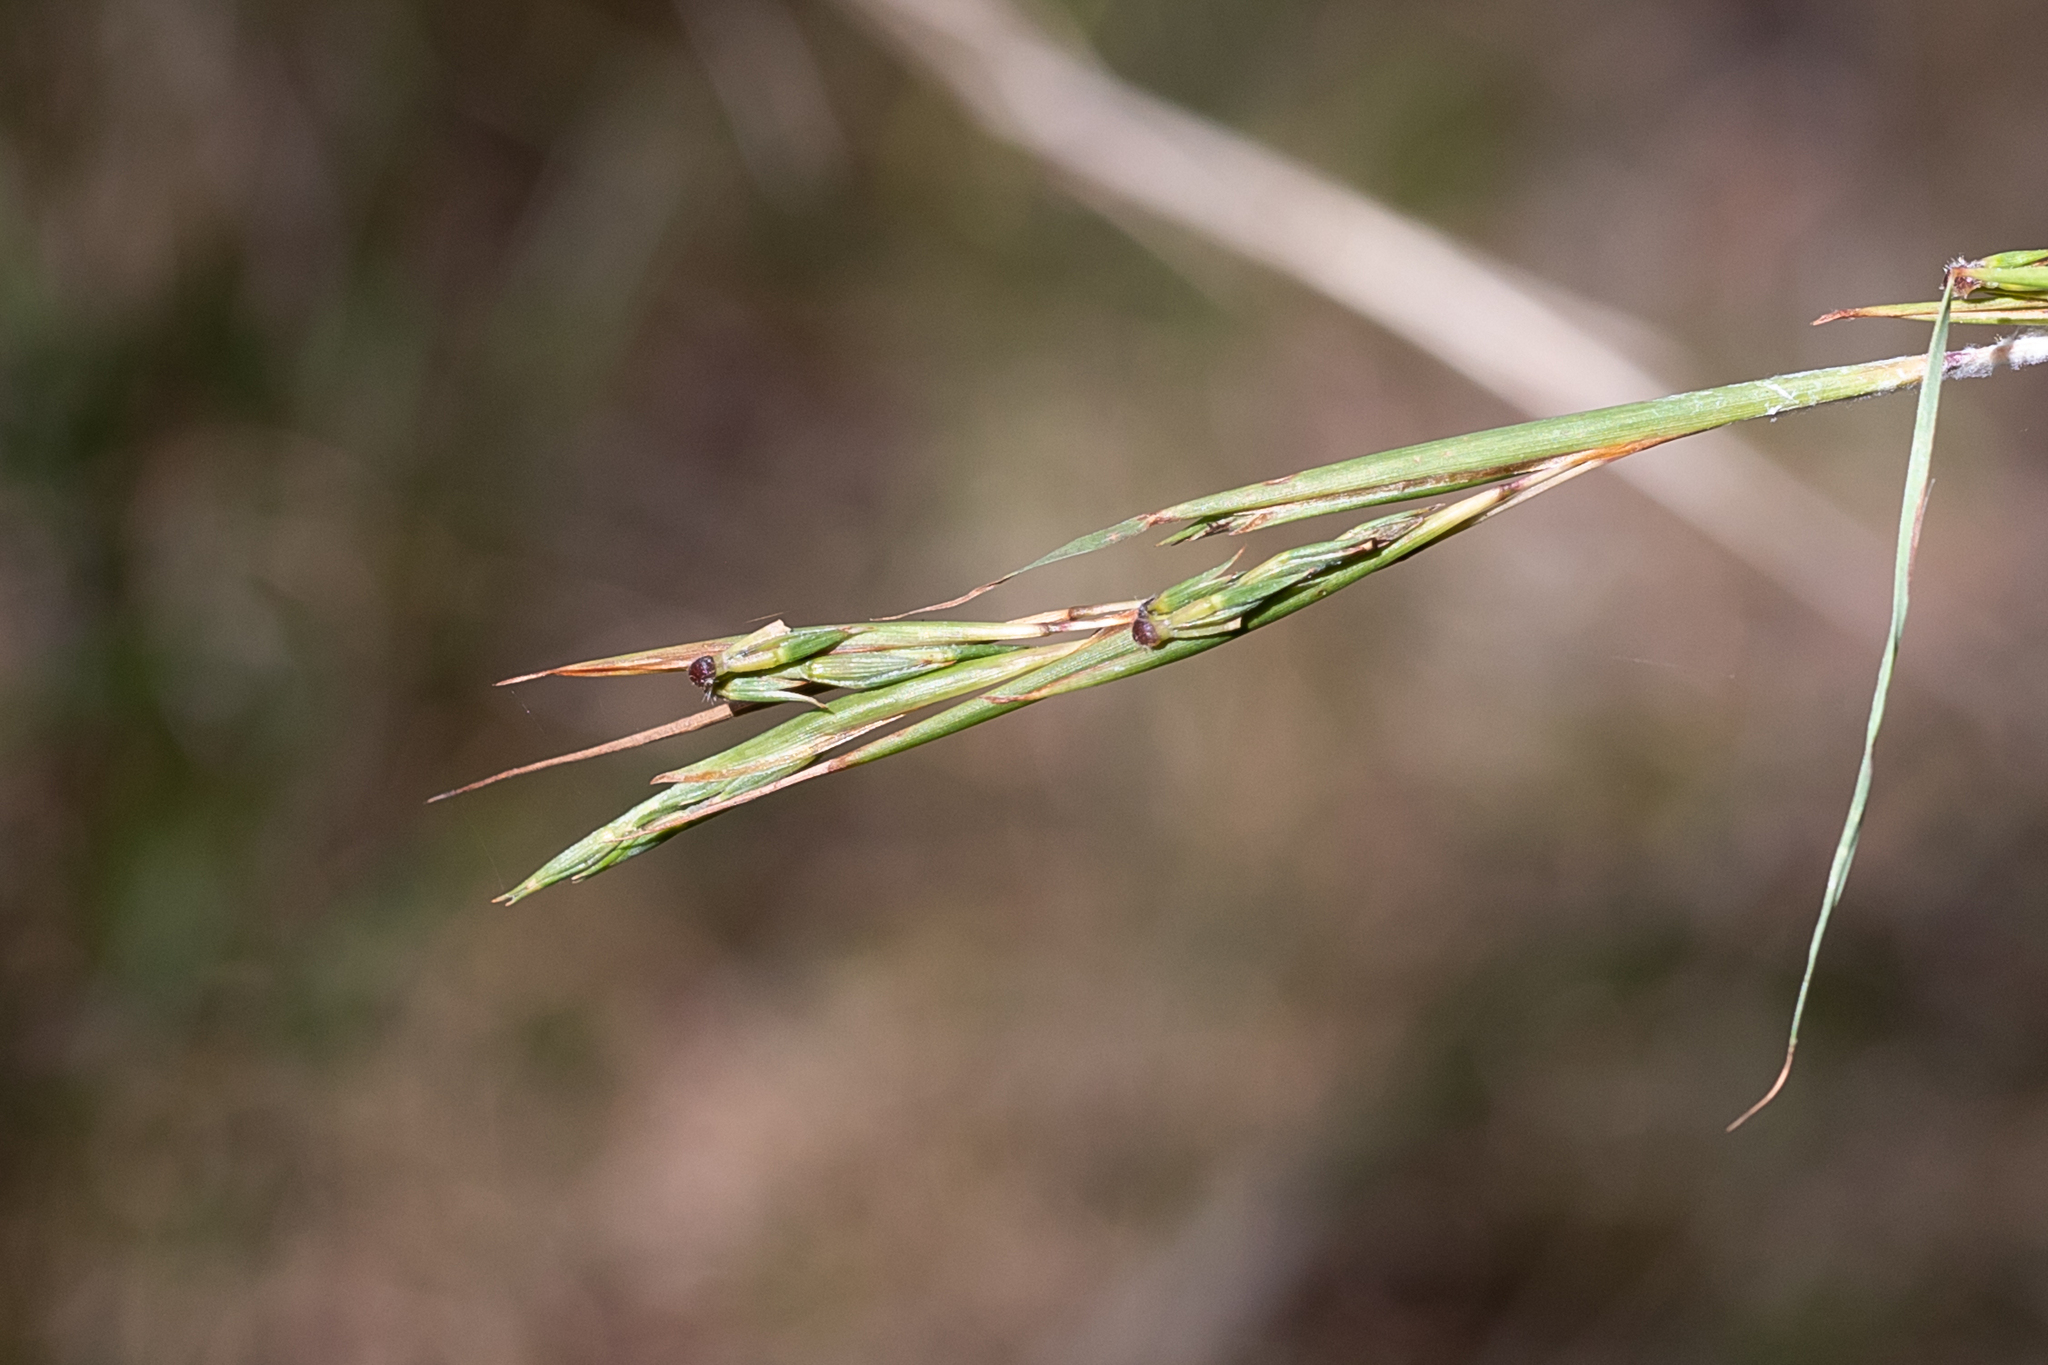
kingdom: Plantae
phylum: Tracheophyta
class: Liliopsida
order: Poales
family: Poaceae
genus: Cymbopogon
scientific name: Cymbopogon refractus
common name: Barbwire grass
